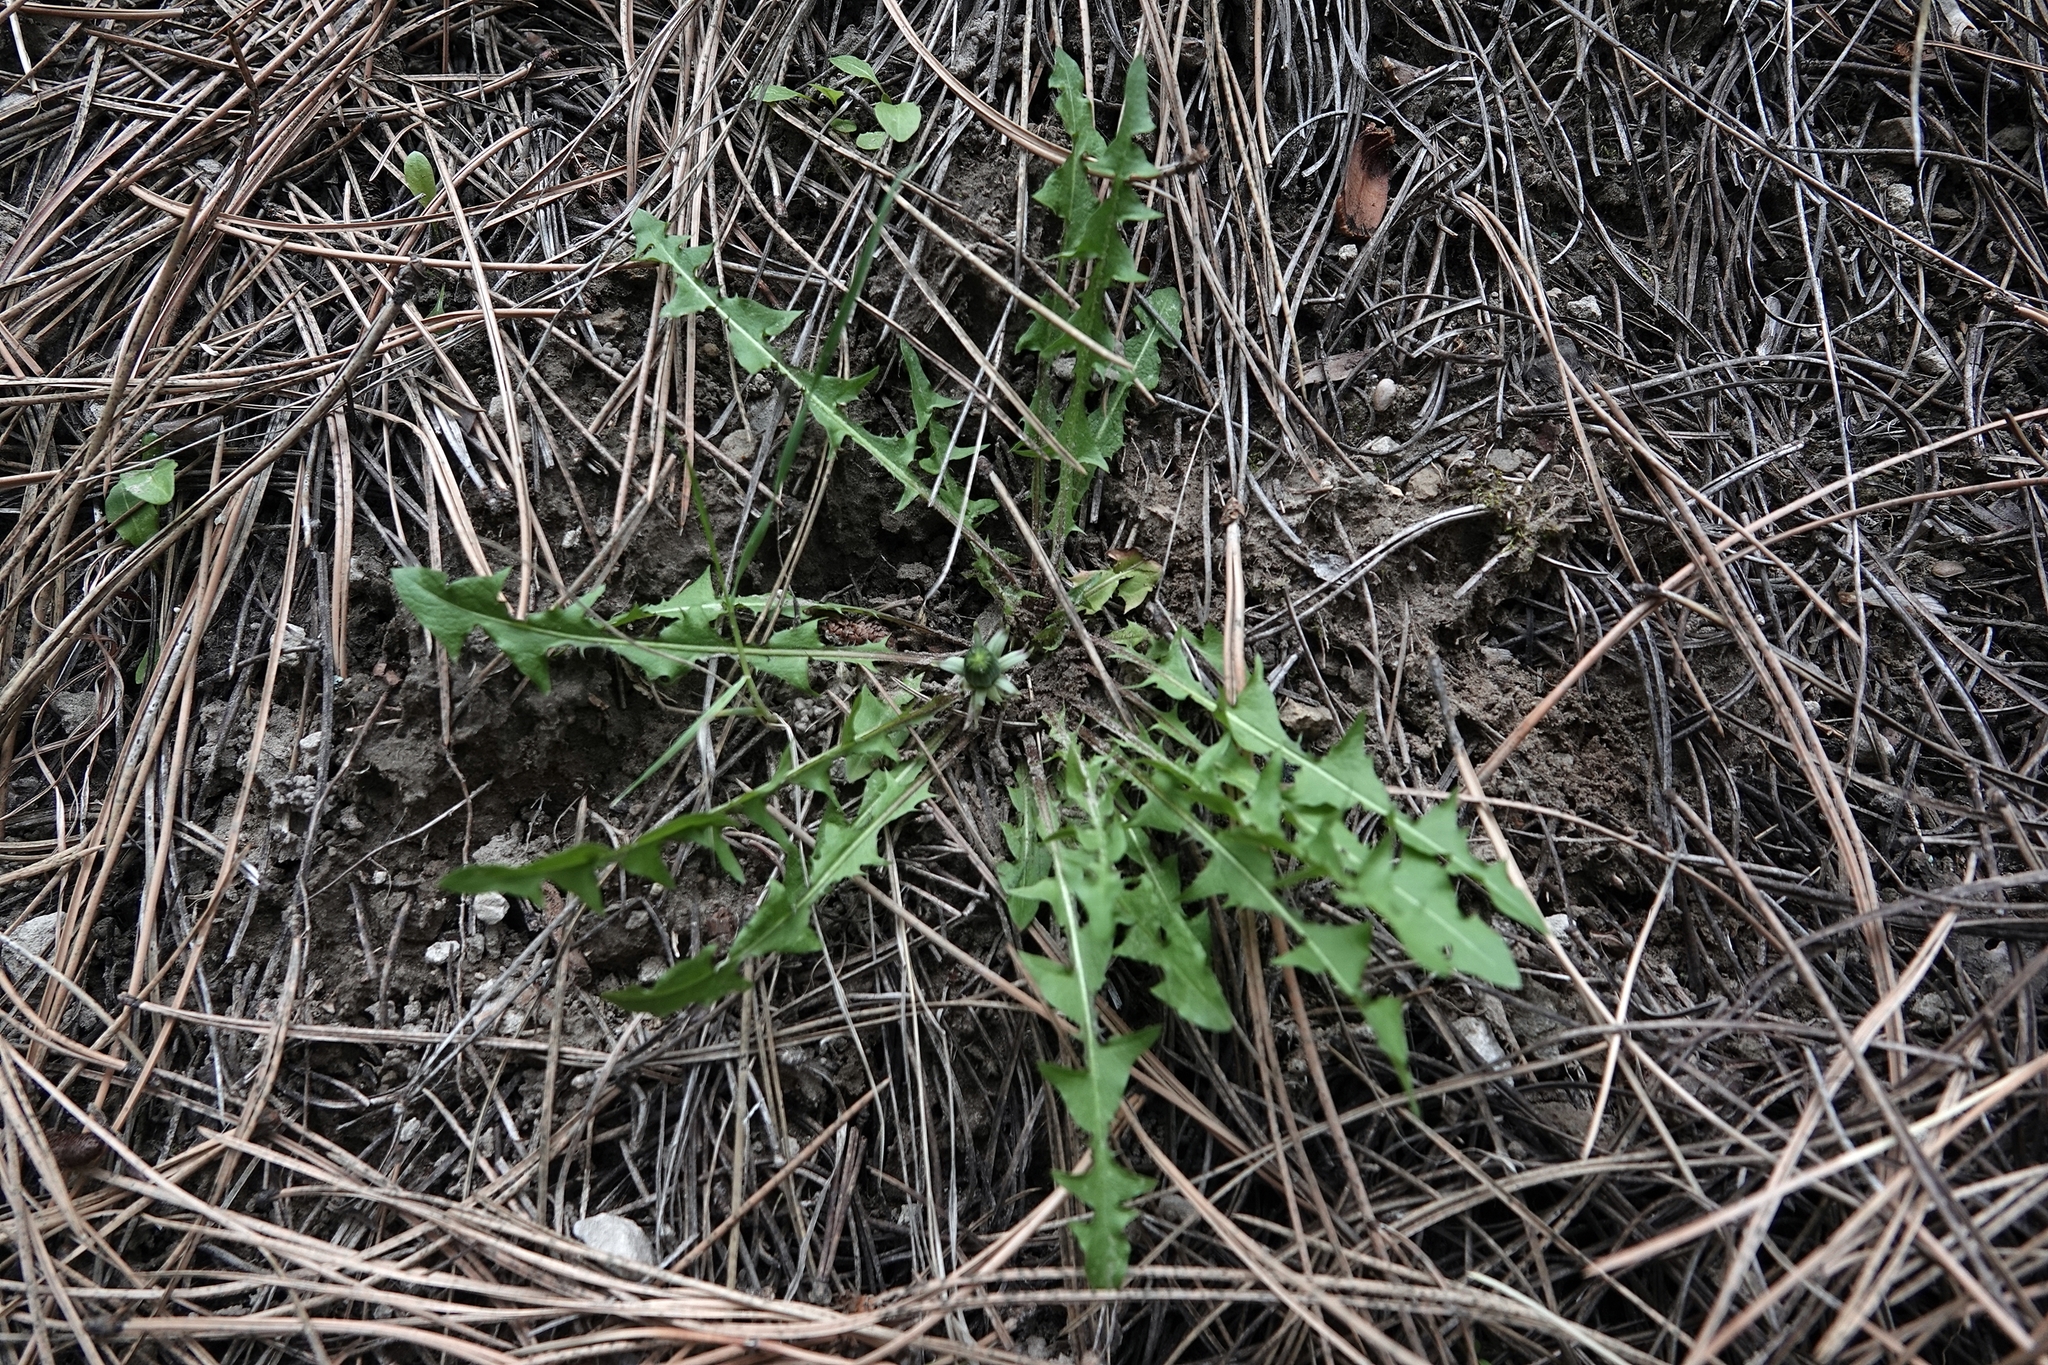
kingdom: Plantae
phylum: Tracheophyta
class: Magnoliopsida
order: Asterales
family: Asteraceae
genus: Taraxacum
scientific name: Taraxacum
